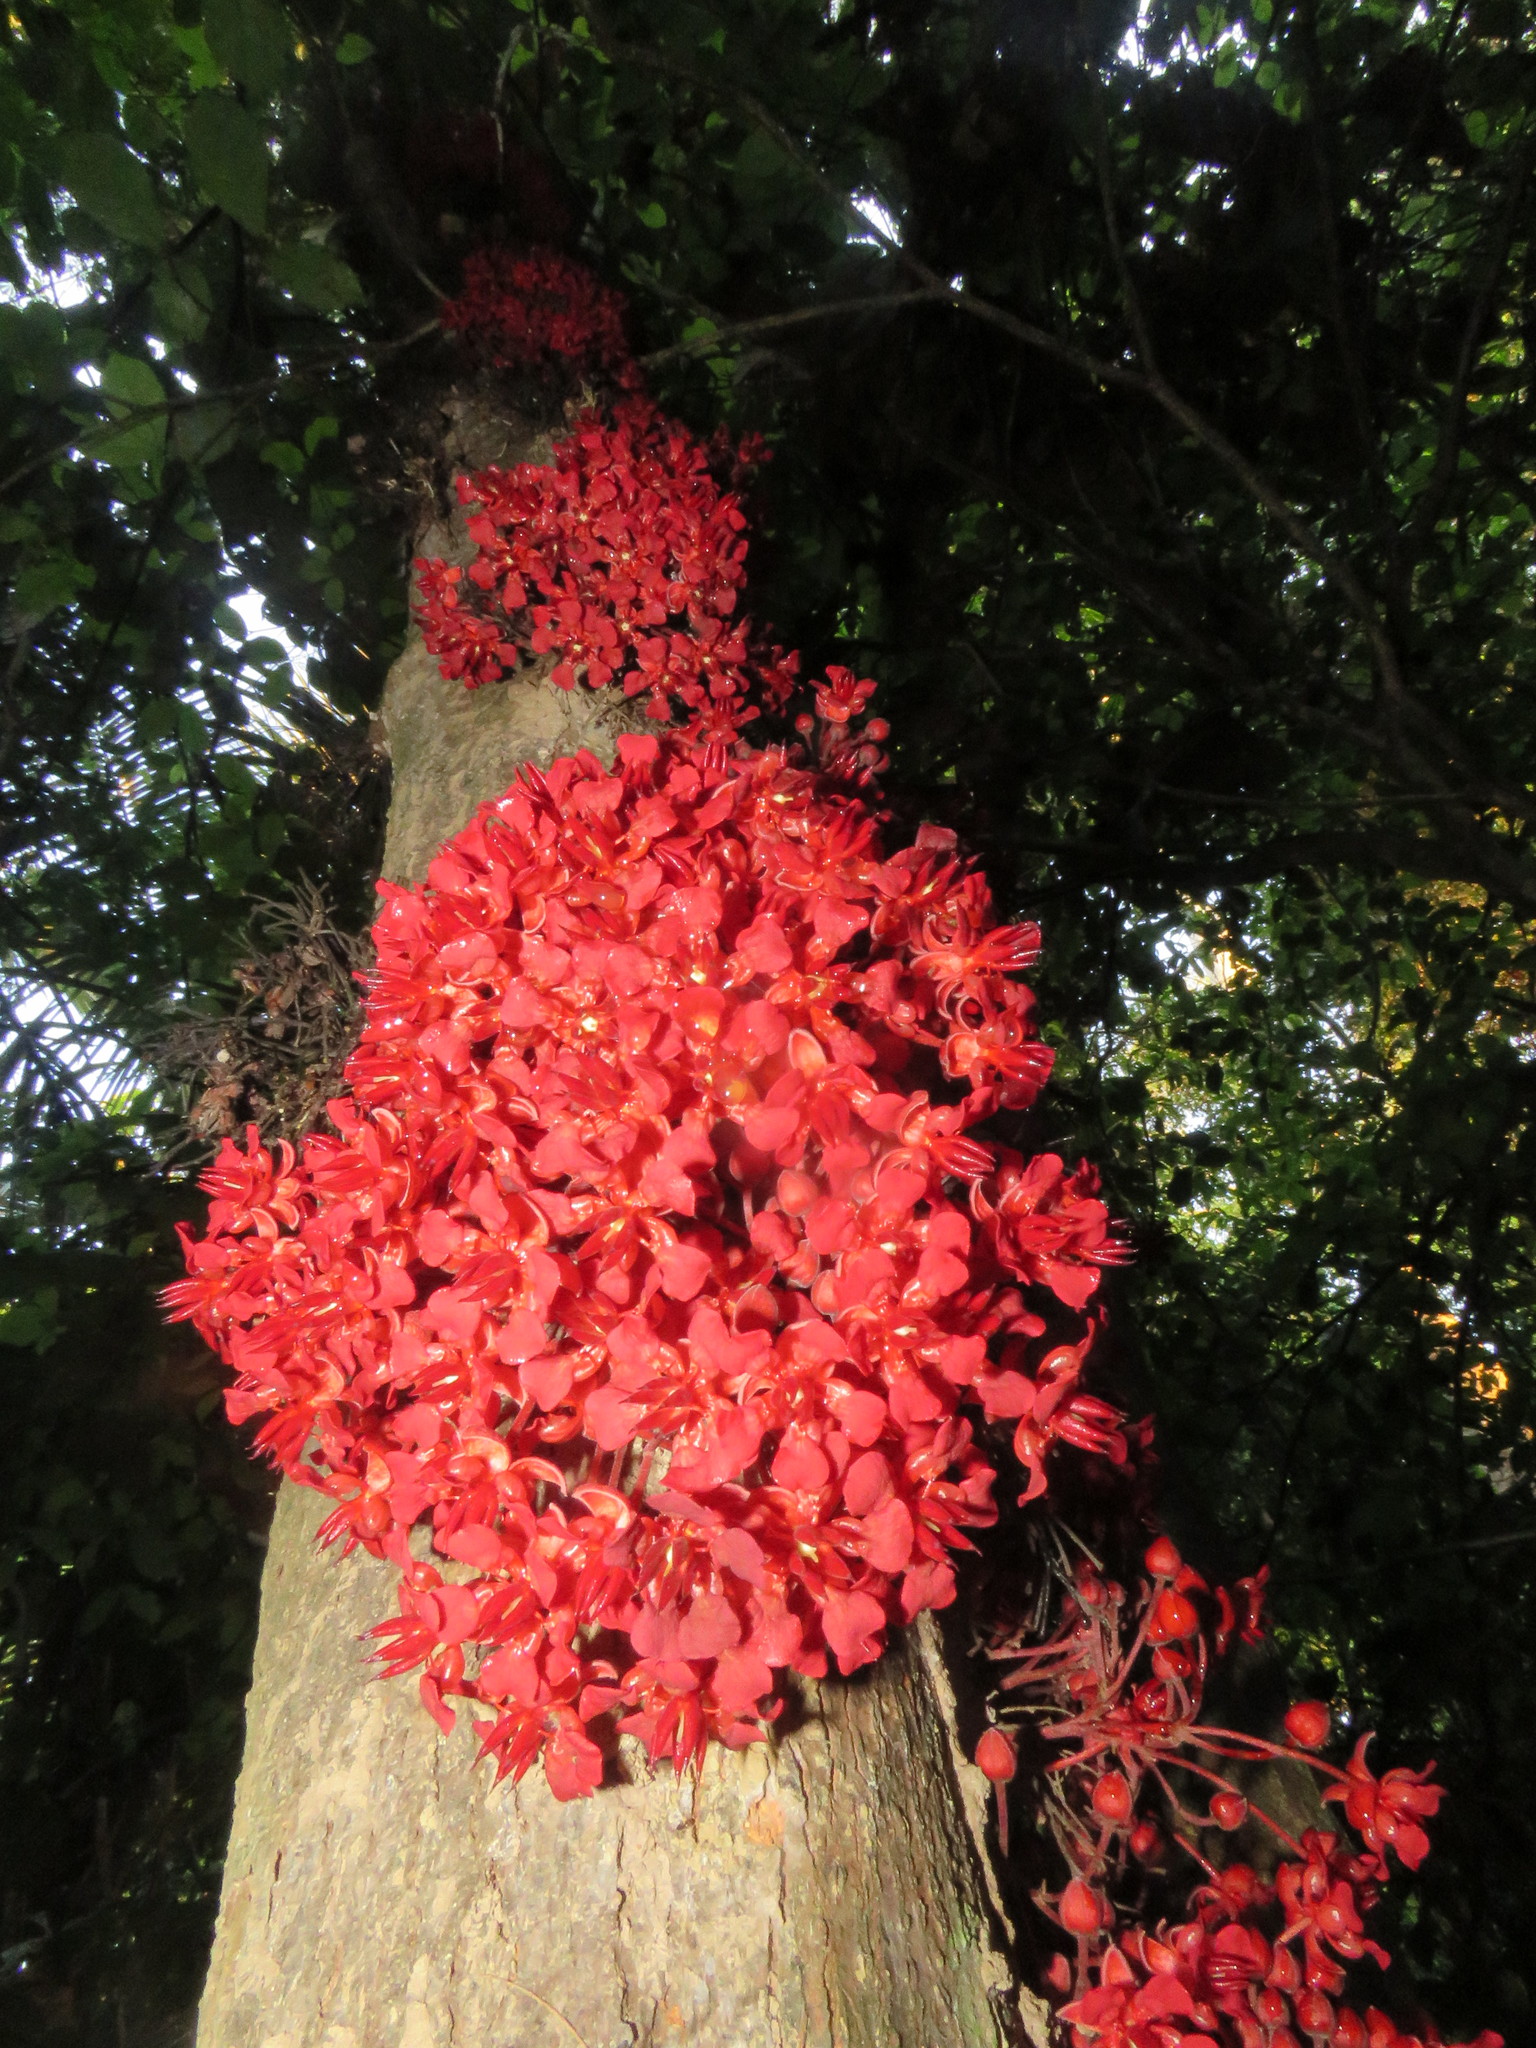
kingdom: Plantae
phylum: Tracheophyta
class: Magnoliopsida
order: Malvales
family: Malvaceae
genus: Theobroma
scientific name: Theobroma speciosum
